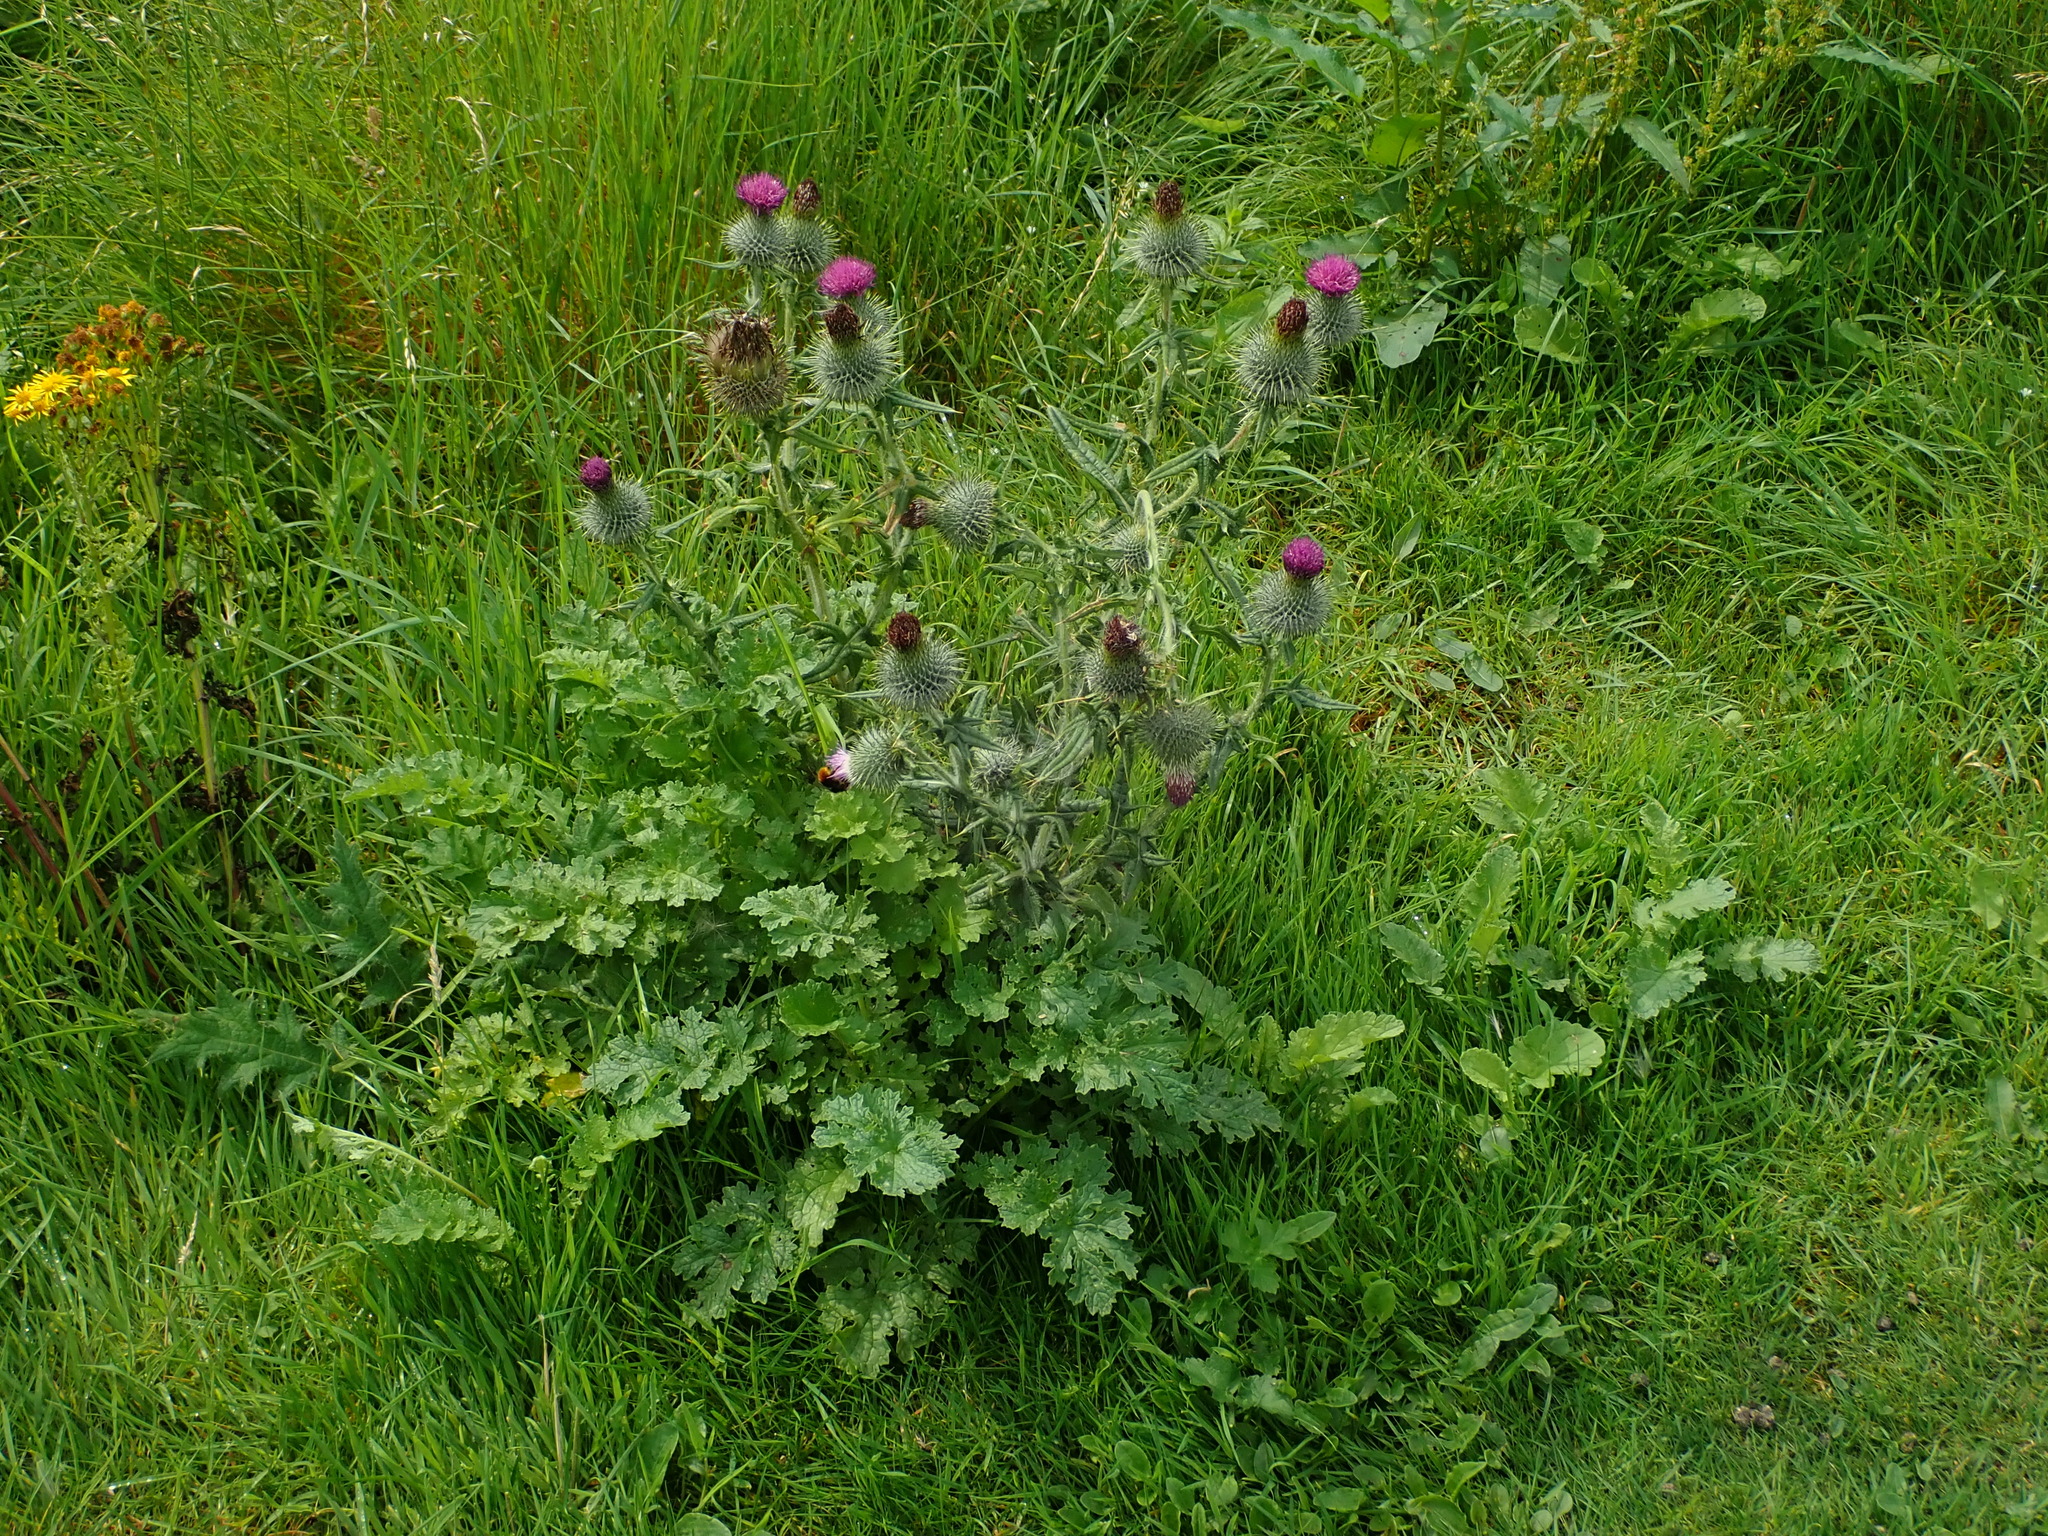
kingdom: Plantae
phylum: Tracheophyta
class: Magnoliopsida
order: Asterales
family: Asteraceae
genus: Cirsium
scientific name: Cirsium vulgare
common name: Bull thistle
